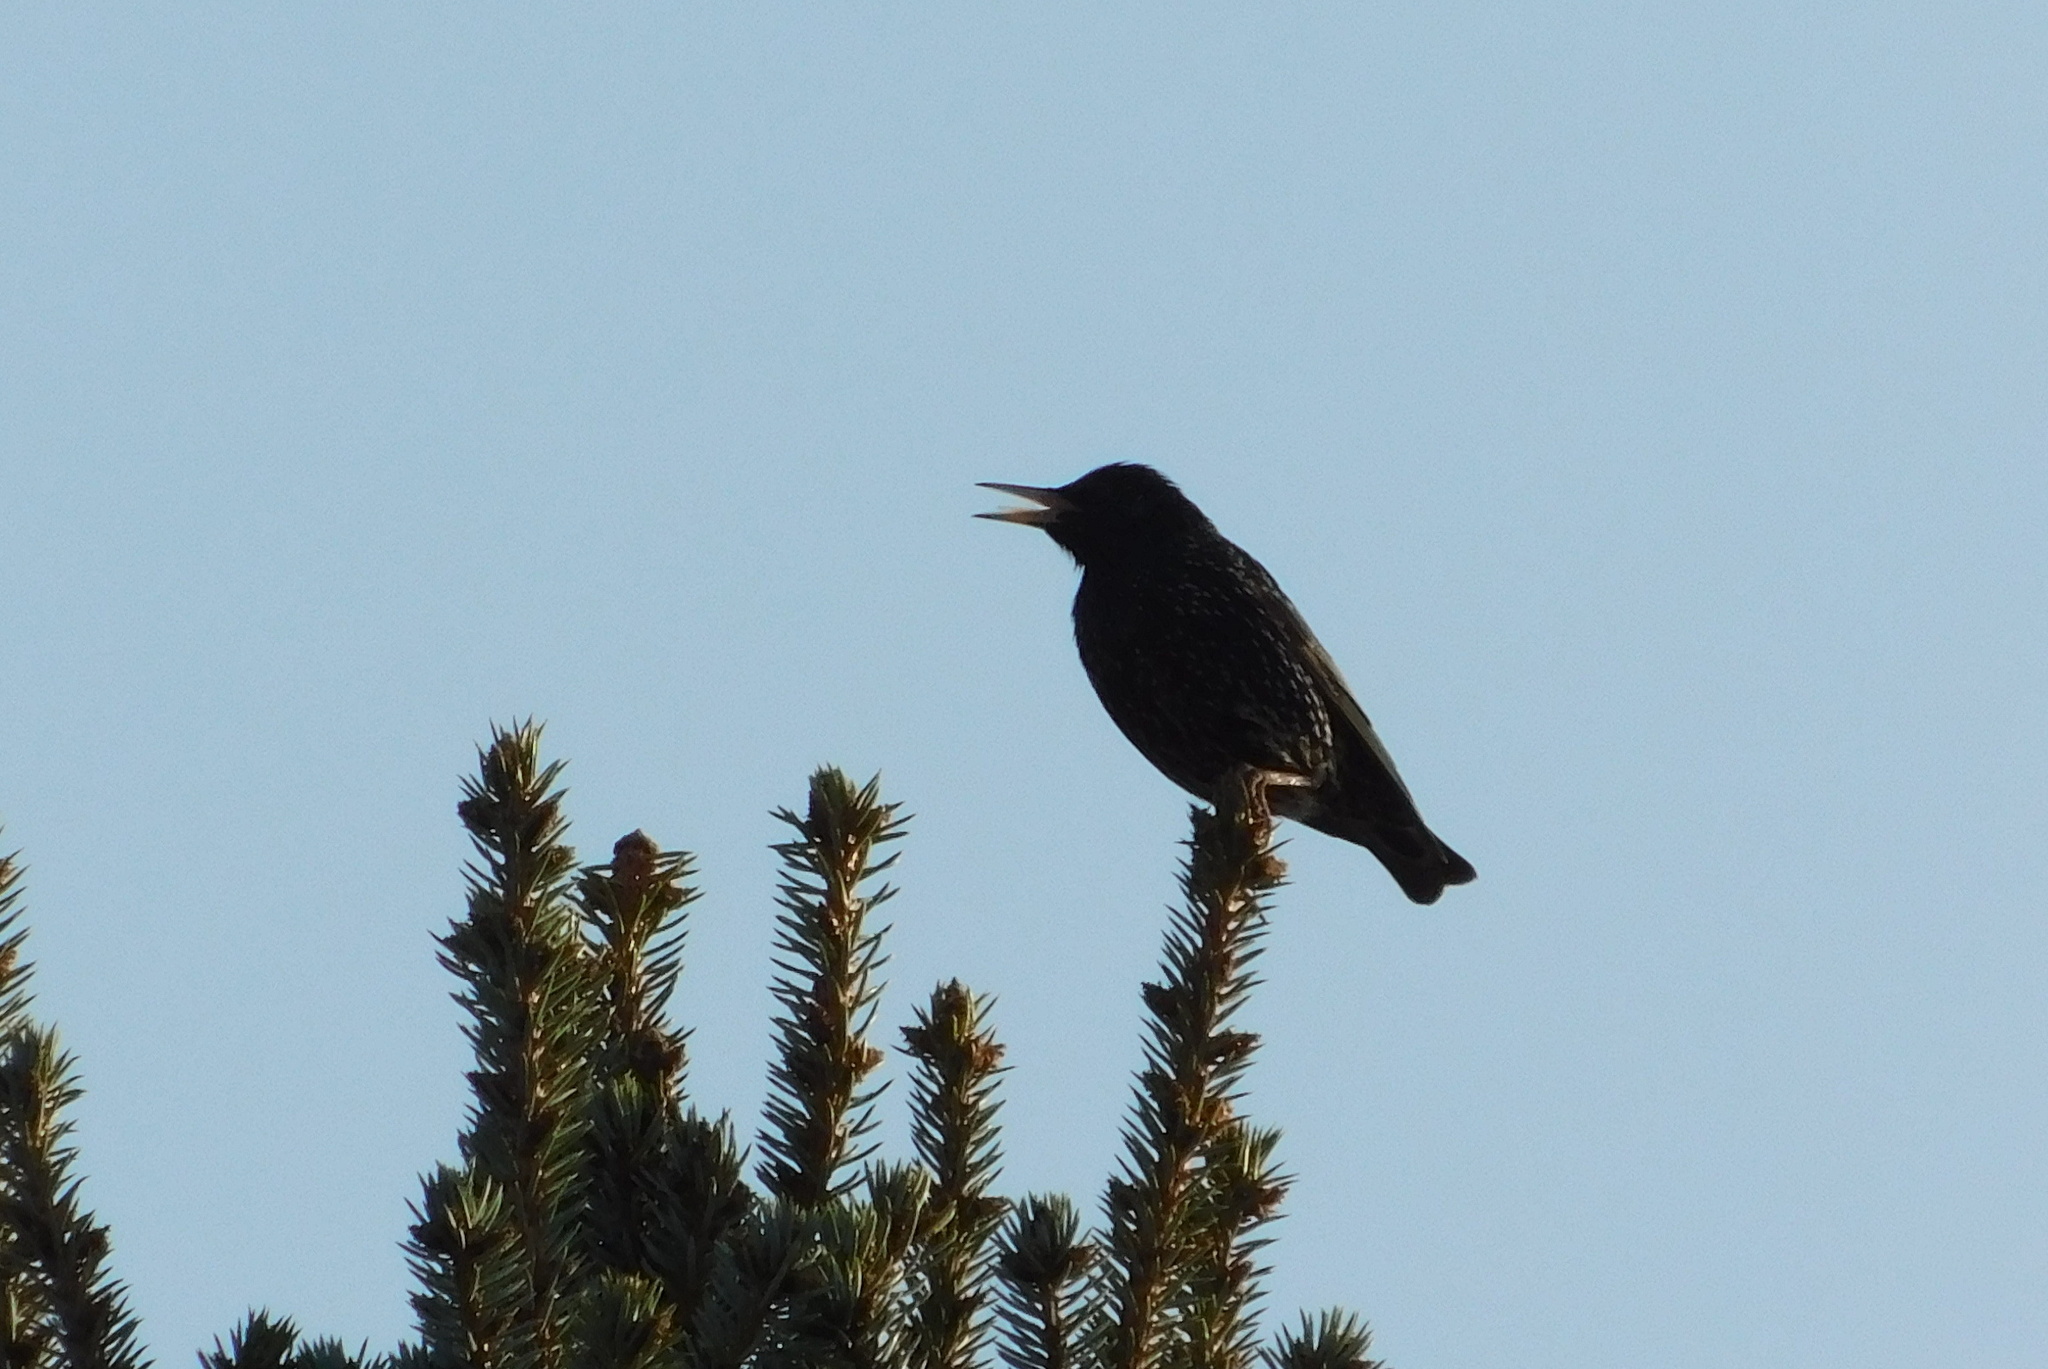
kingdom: Animalia
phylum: Chordata
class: Aves
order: Passeriformes
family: Sturnidae
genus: Sturnus
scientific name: Sturnus vulgaris
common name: Common starling
